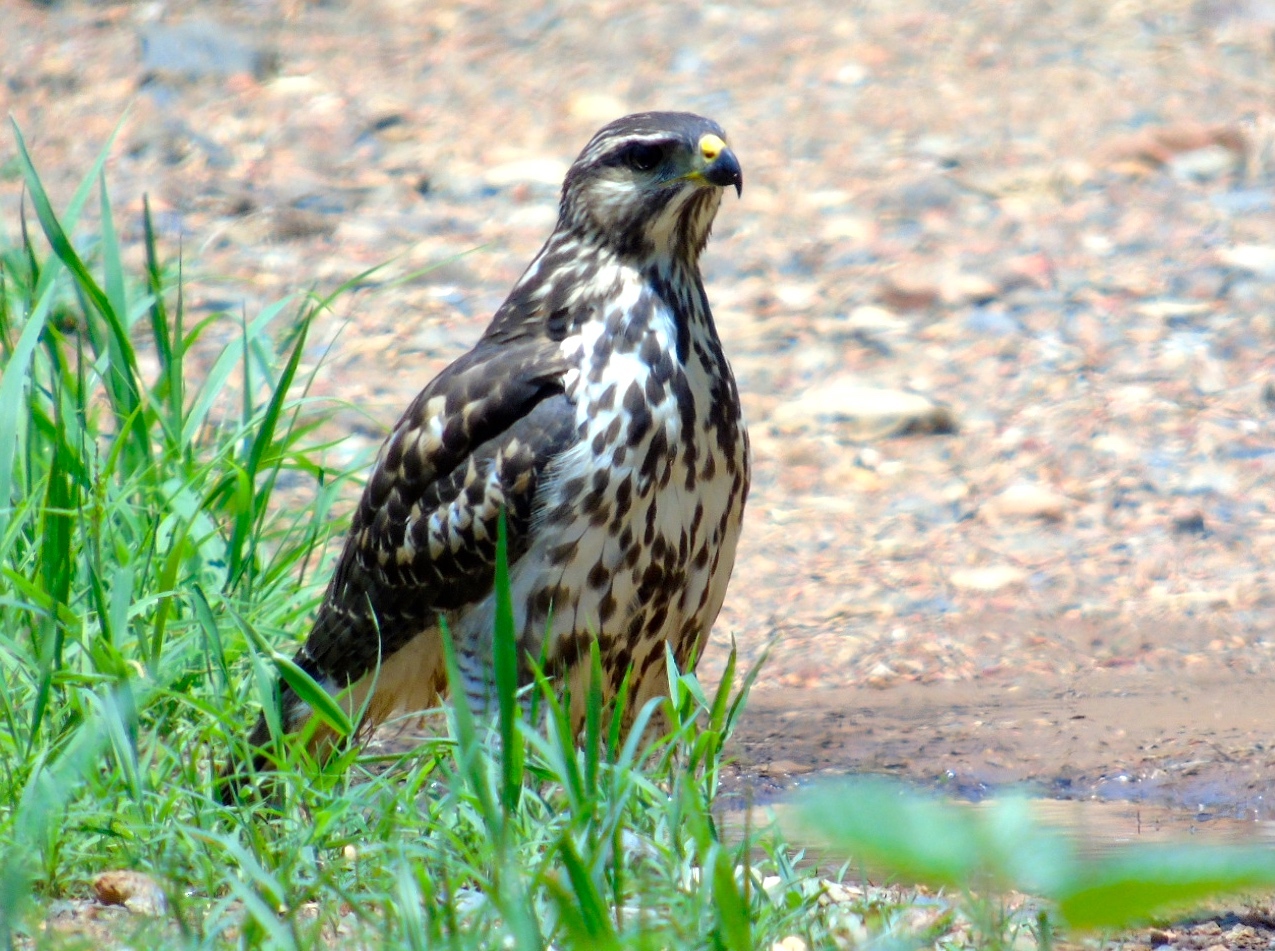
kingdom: Animalia
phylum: Chordata
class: Aves
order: Accipitriformes
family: Accipitridae
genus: Buteo
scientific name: Buteo nitidus
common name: Grey-lined hawk
